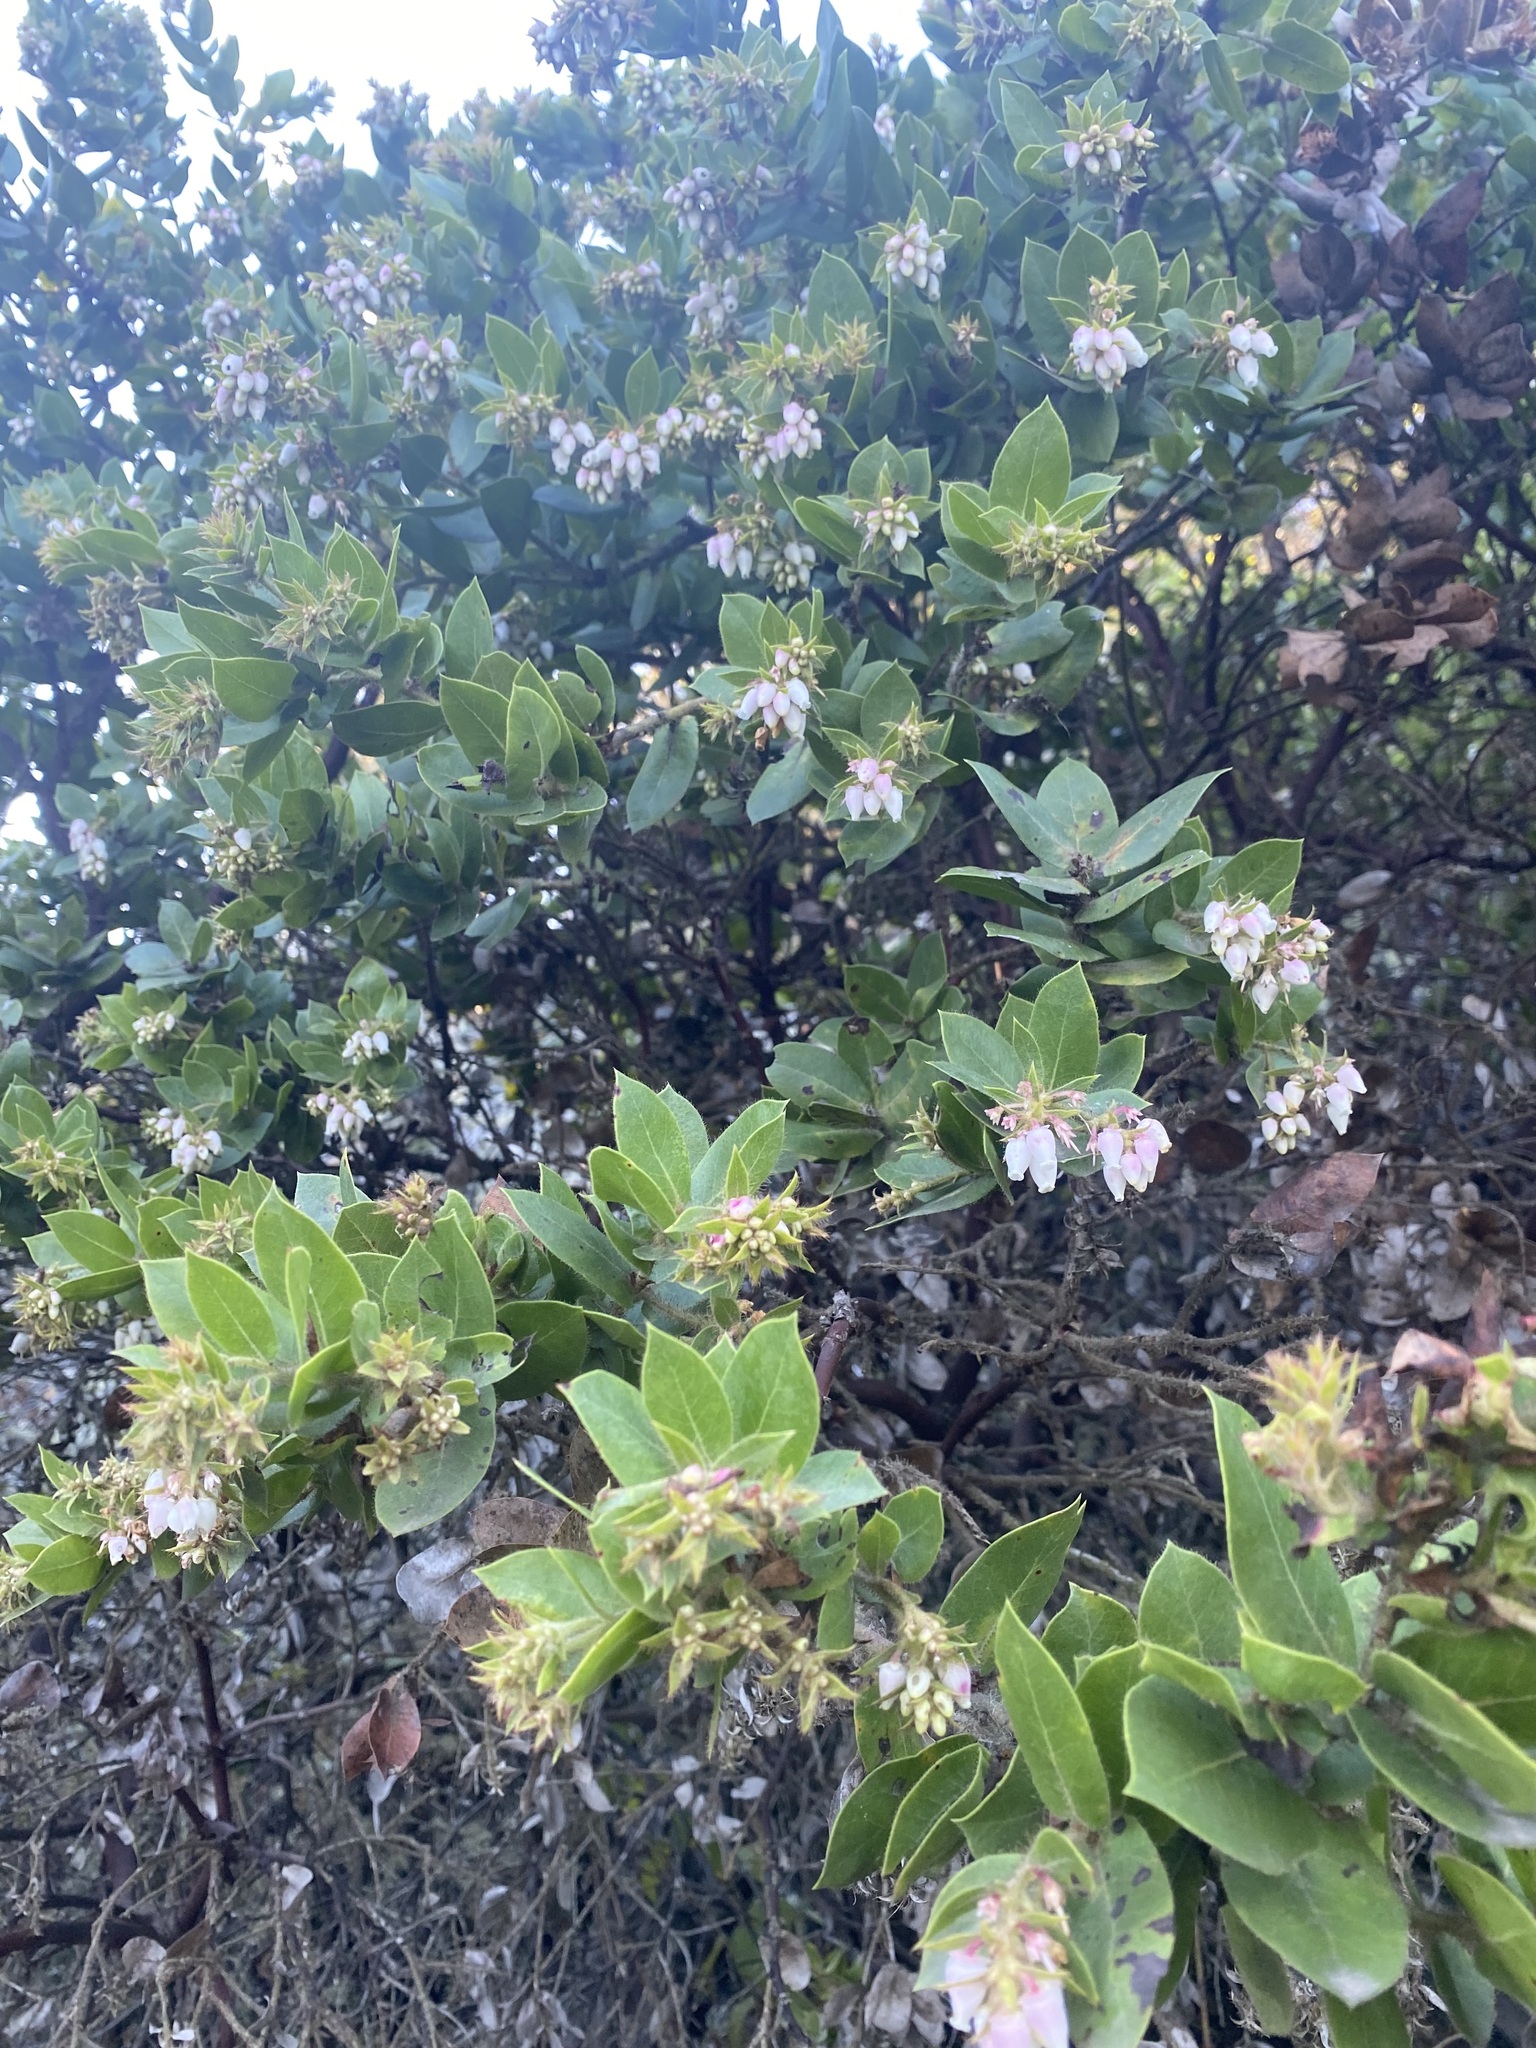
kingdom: Plantae
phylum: Tracheophyta
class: Magnoliopsida
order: Ericales
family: Ericaceae
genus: Arctostaphylos
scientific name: Arctostaphylos montaraensis
